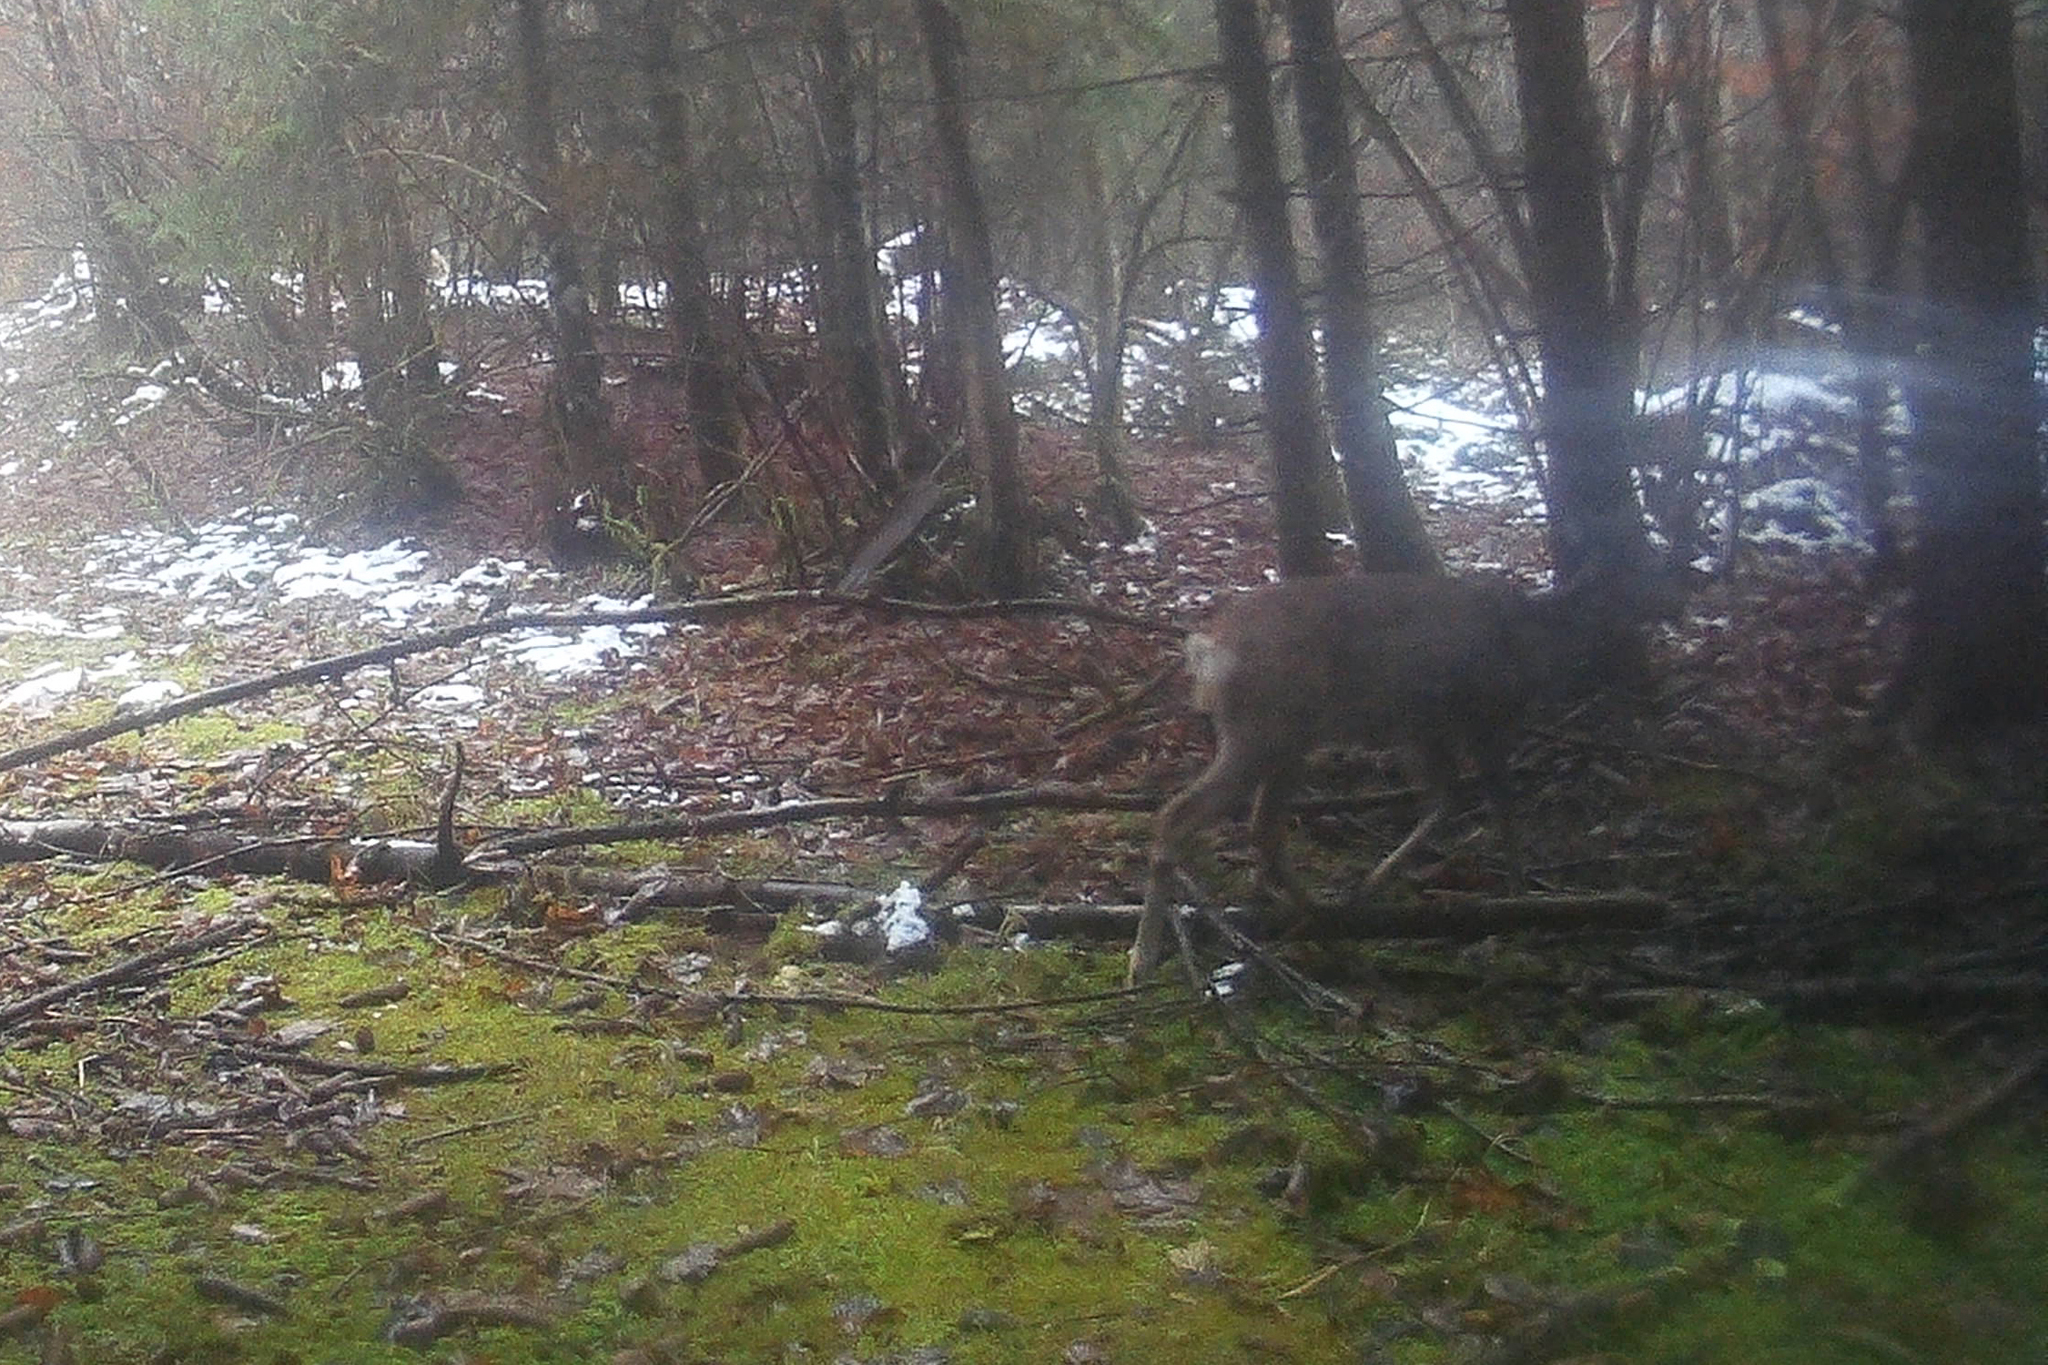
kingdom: Animalia
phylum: Chordata
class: Mammalia
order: Artiodactyla
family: Cervidae
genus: Capreolus
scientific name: Capreolus capreolus
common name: Western roe deer
